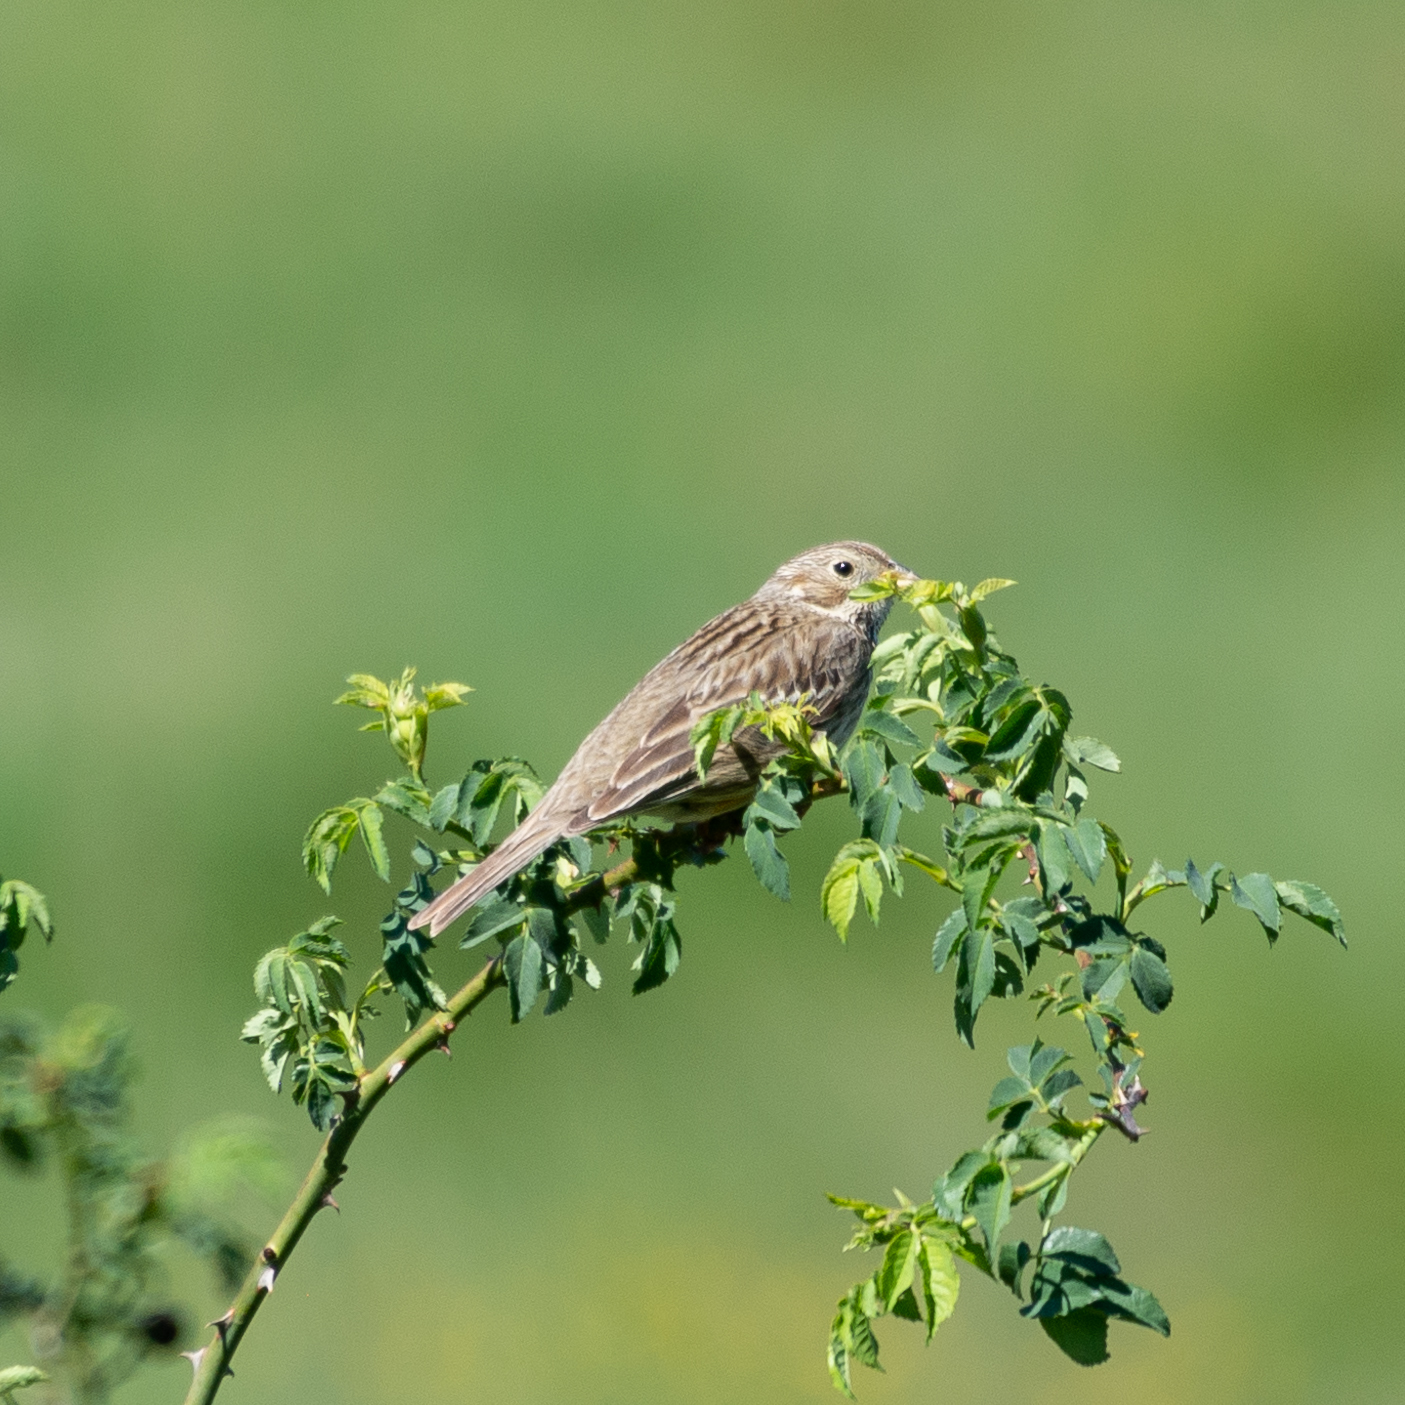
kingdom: Animalia
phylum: Chordata
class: Aves
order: Passeriformes
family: Emberizidae
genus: Emberiza
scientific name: Emberiza calandra
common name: Corn bunting
